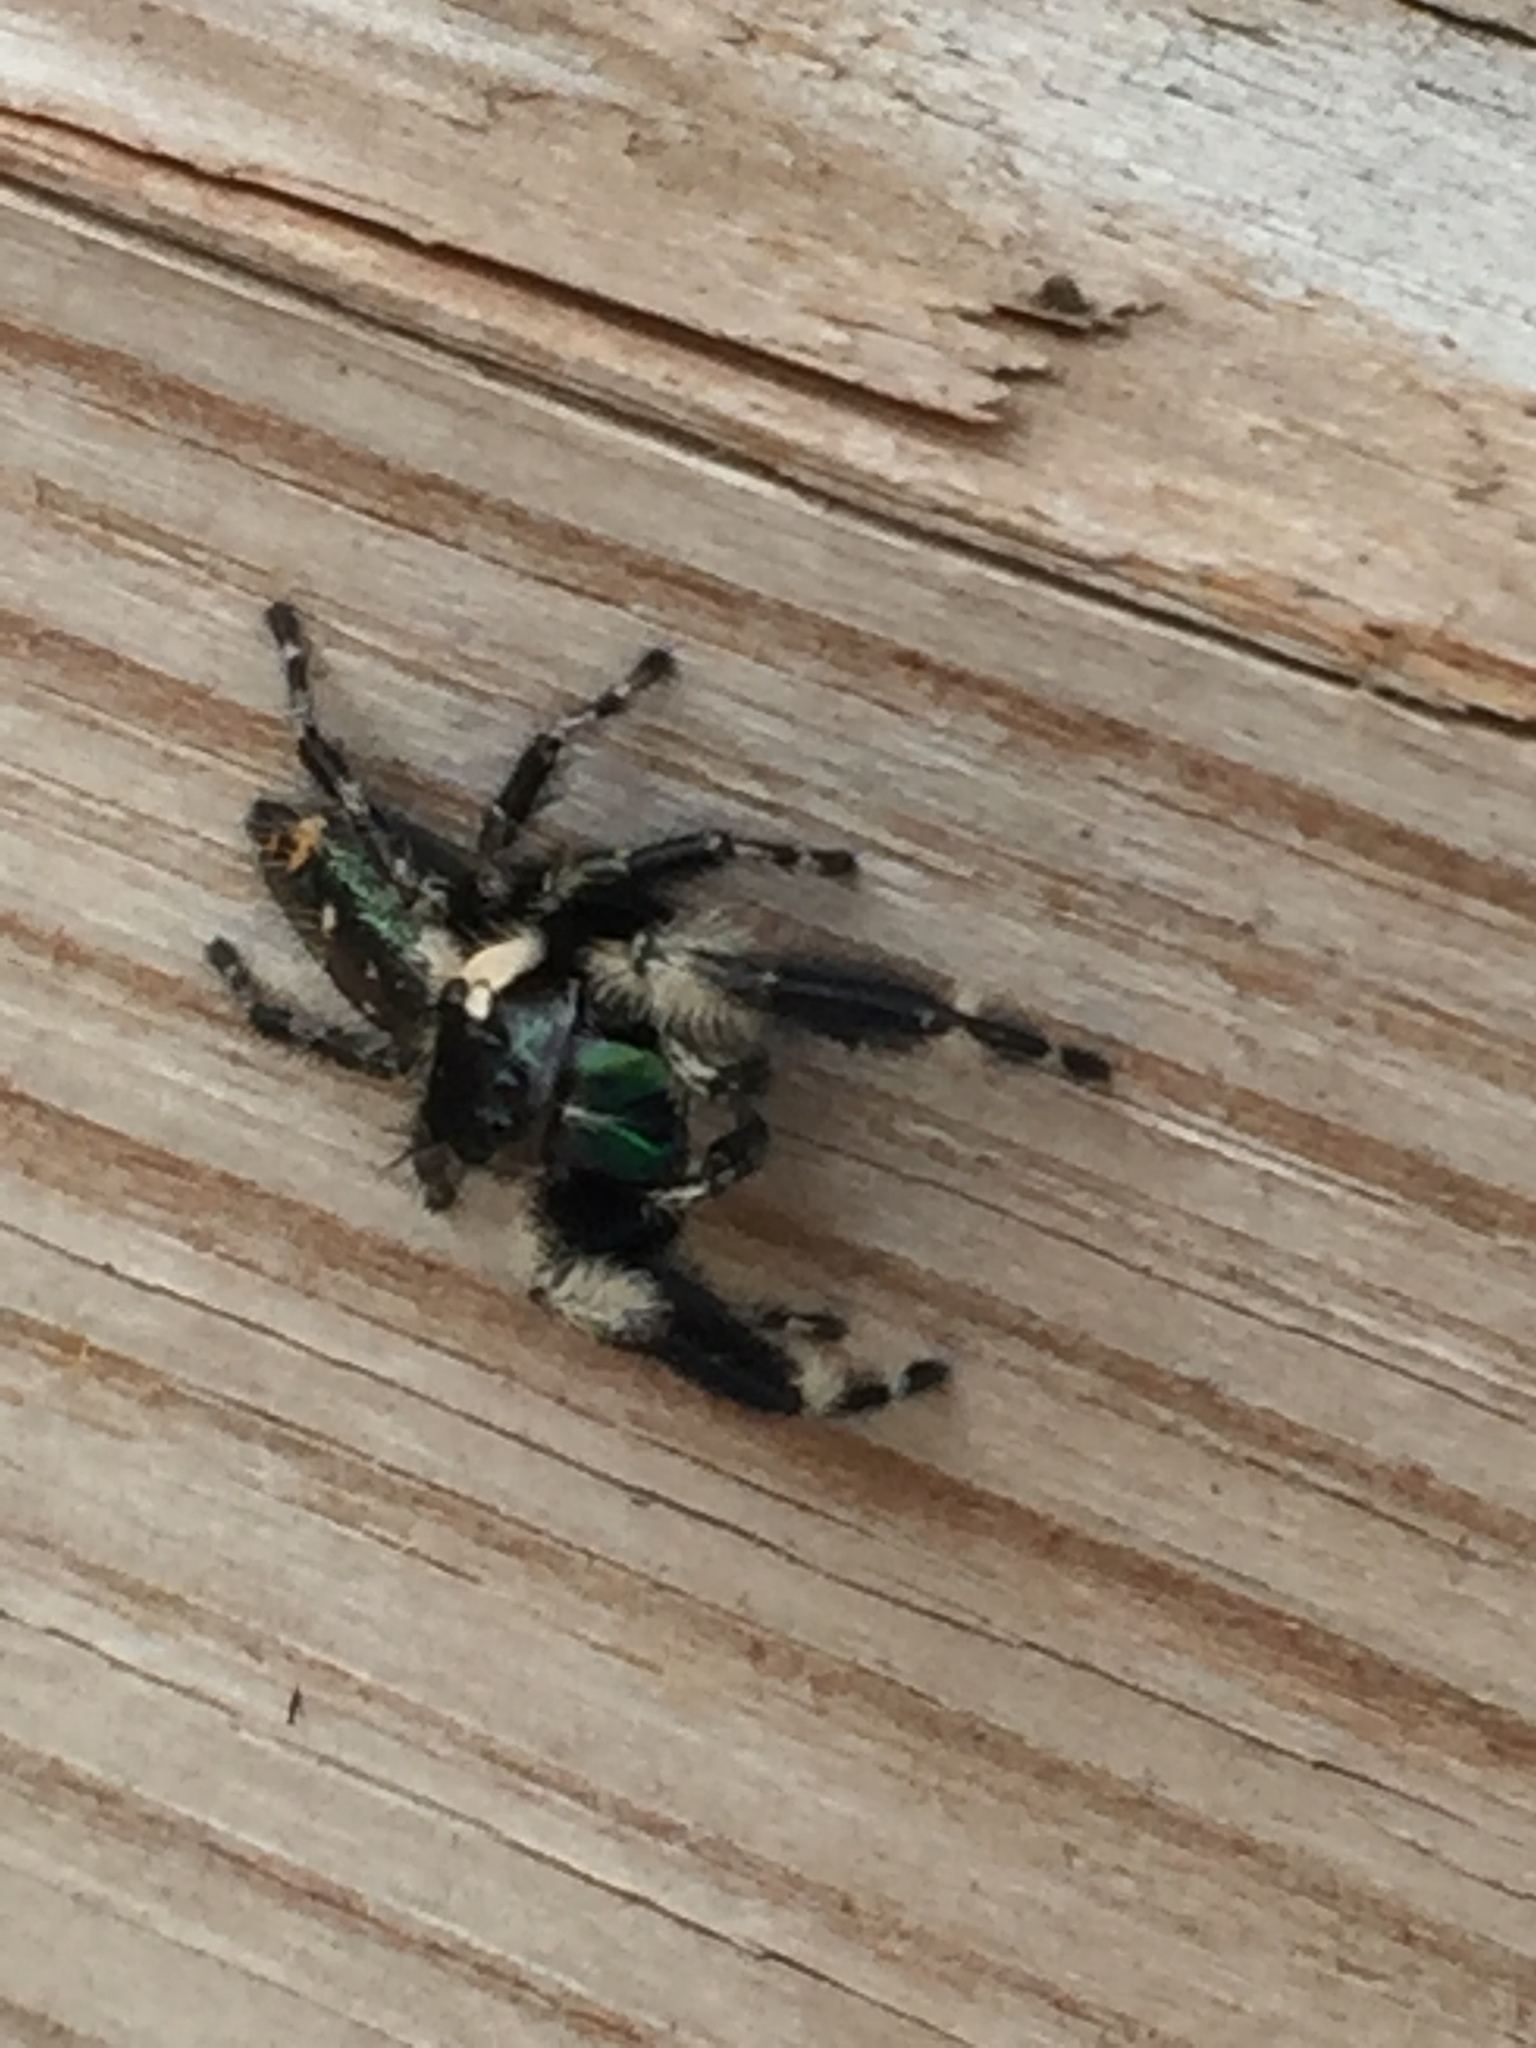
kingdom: Animalia
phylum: Arthropoda
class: Arachnida
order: Araneae
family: Salticidae
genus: Phidippus
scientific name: Phidippus otiosus
